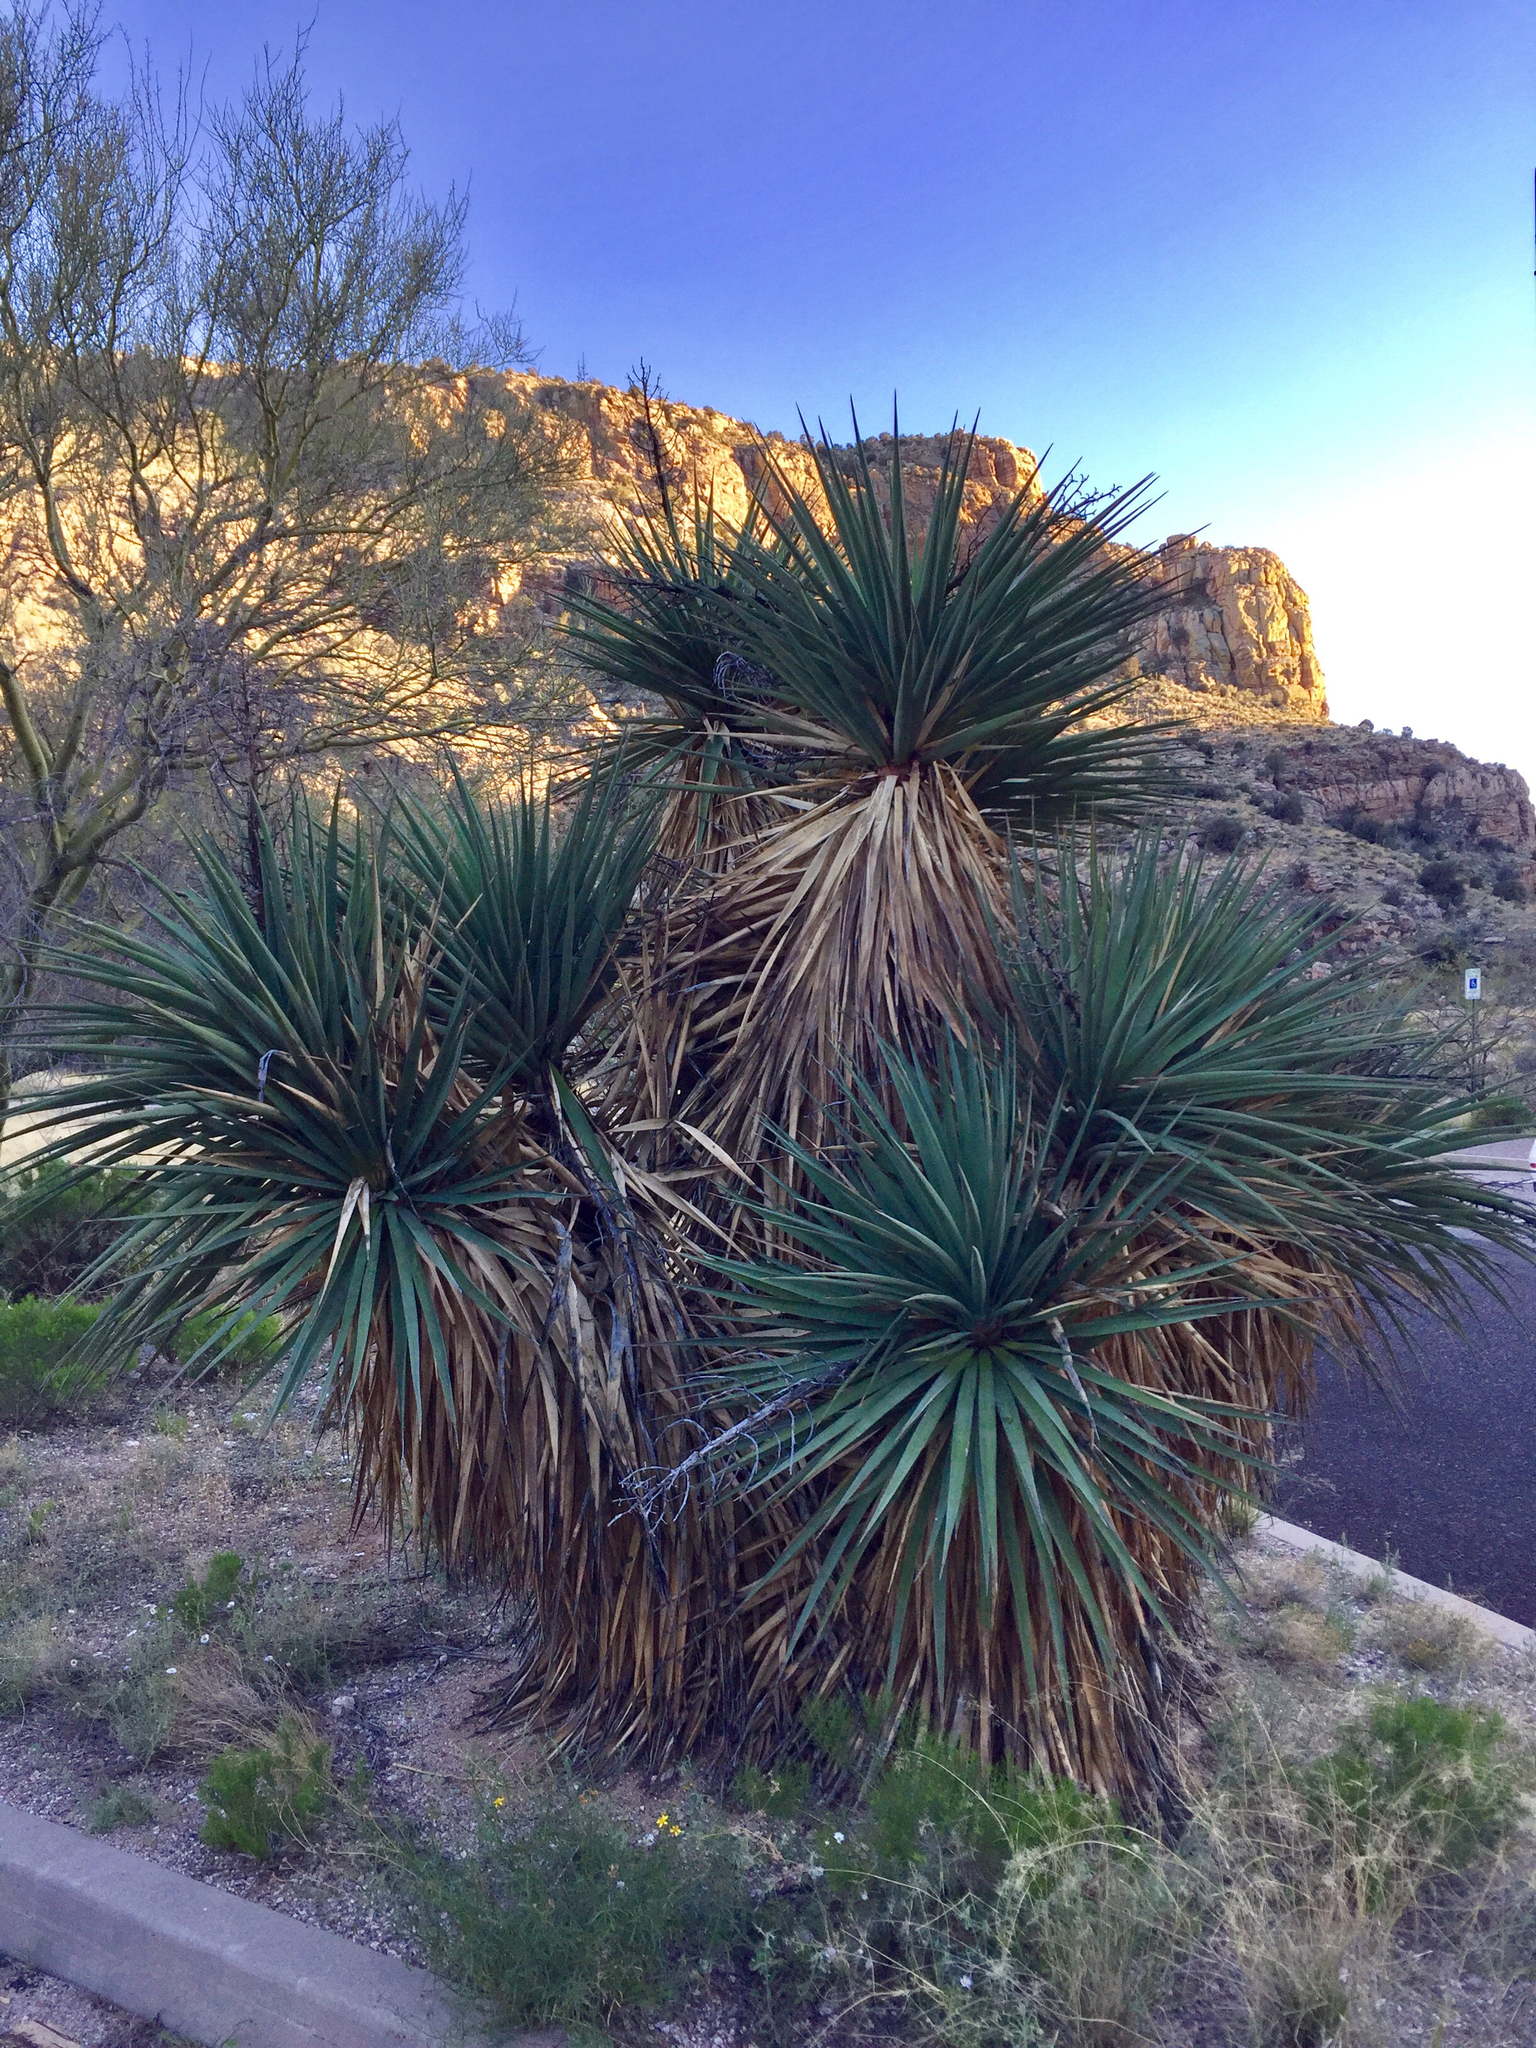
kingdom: Plantae
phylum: Tracheophyta
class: Liliopsida
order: Asparagales
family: Asparagaceae
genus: Yucca
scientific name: Yucca madrensis
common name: Hoary yucca
